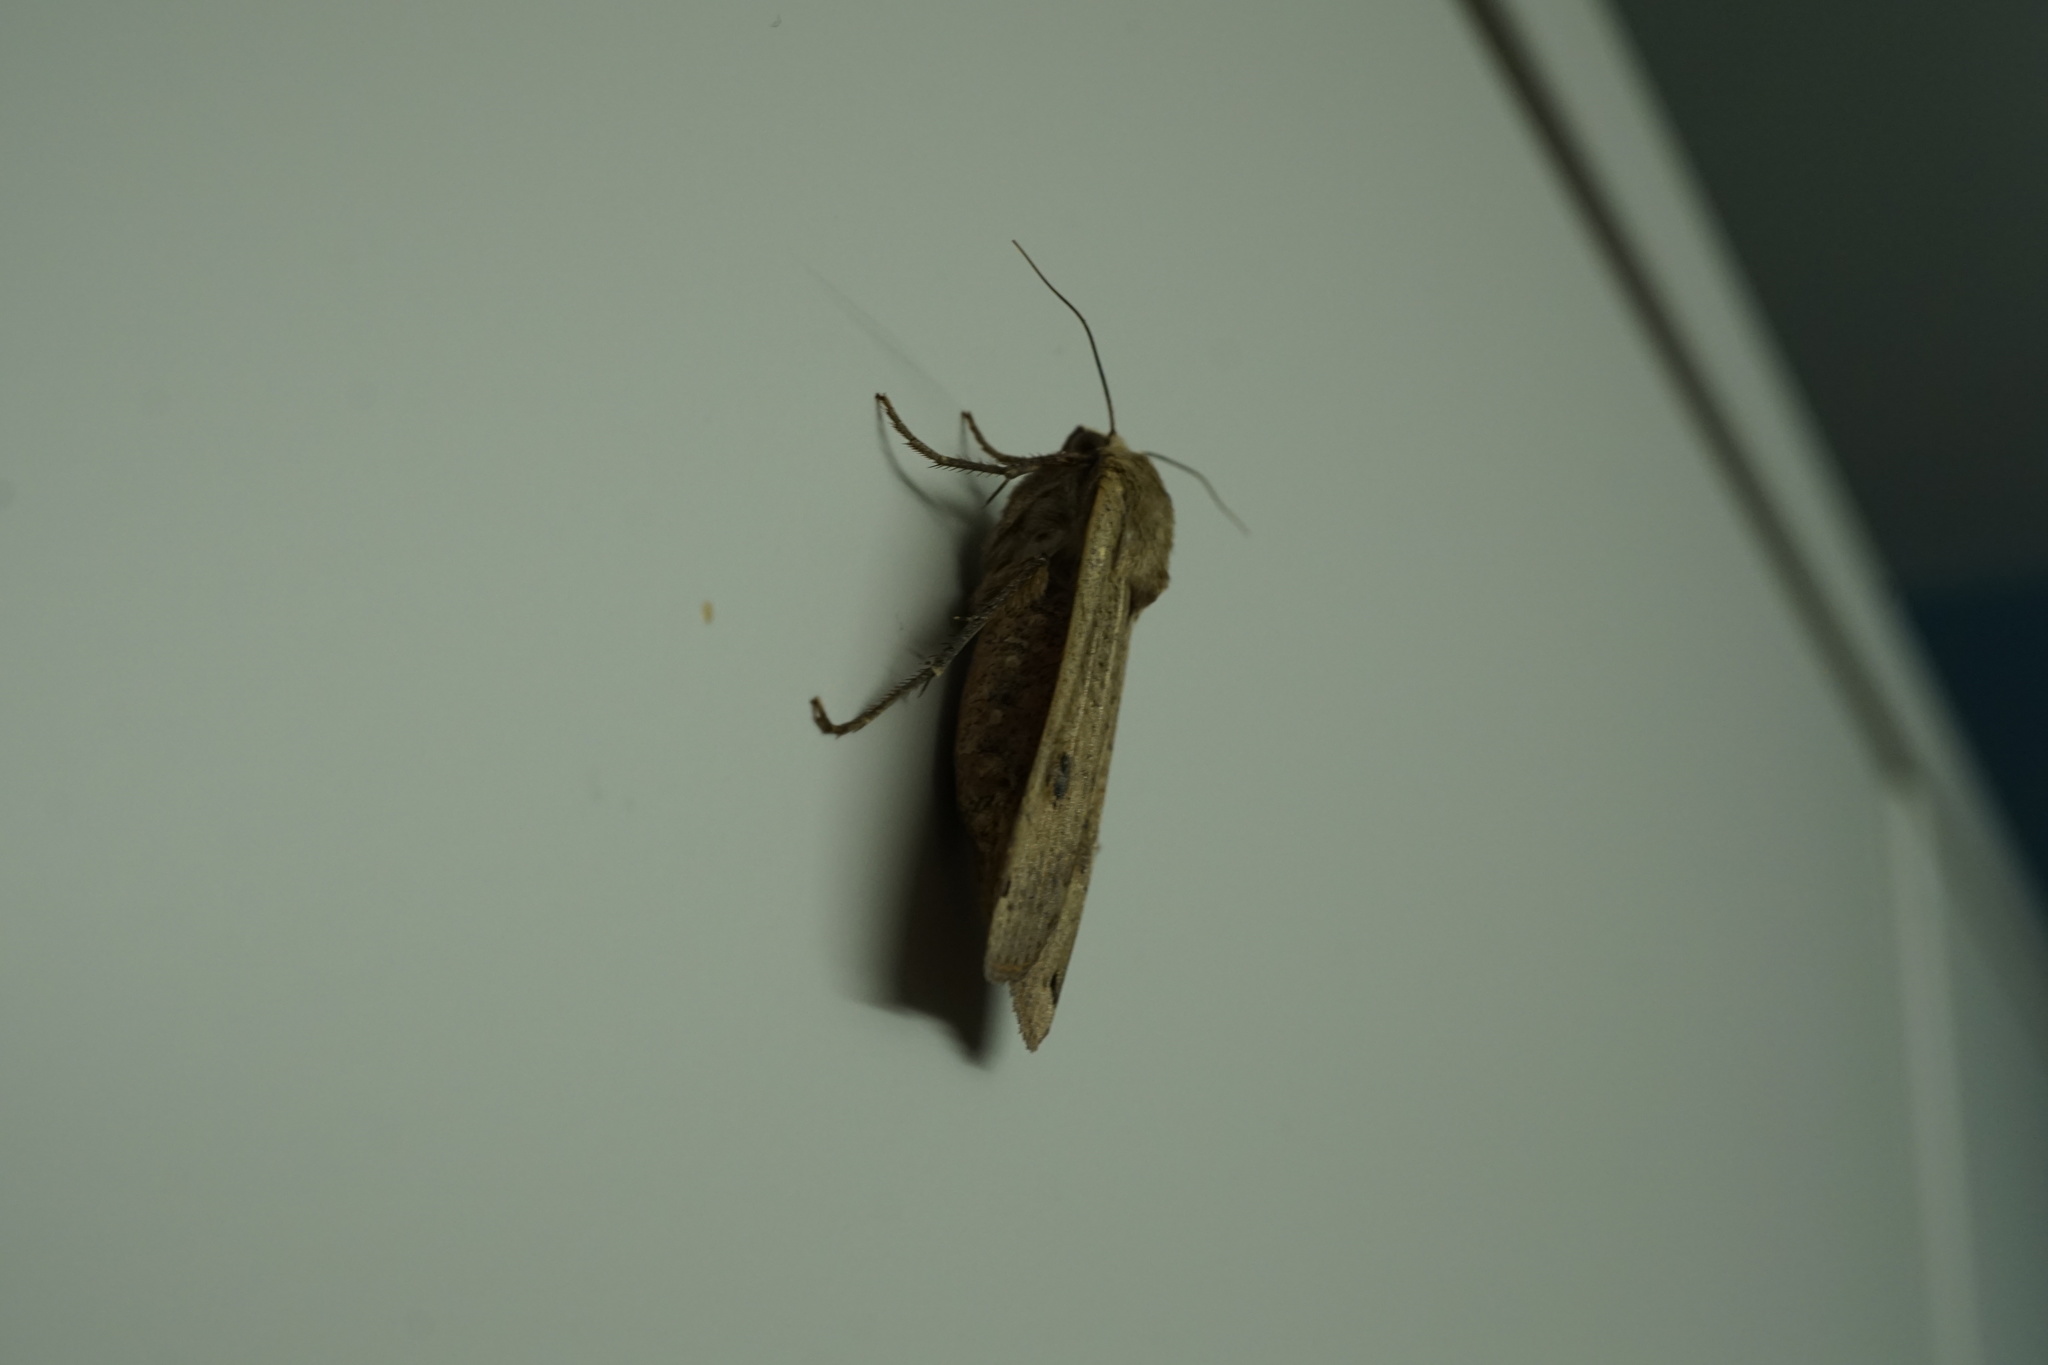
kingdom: Animalia
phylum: Arthropoda
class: Insecta
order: Lepidoptera
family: Noctuidae
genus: Noctua
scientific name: Noctua pronuba
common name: Large yellow underwing
